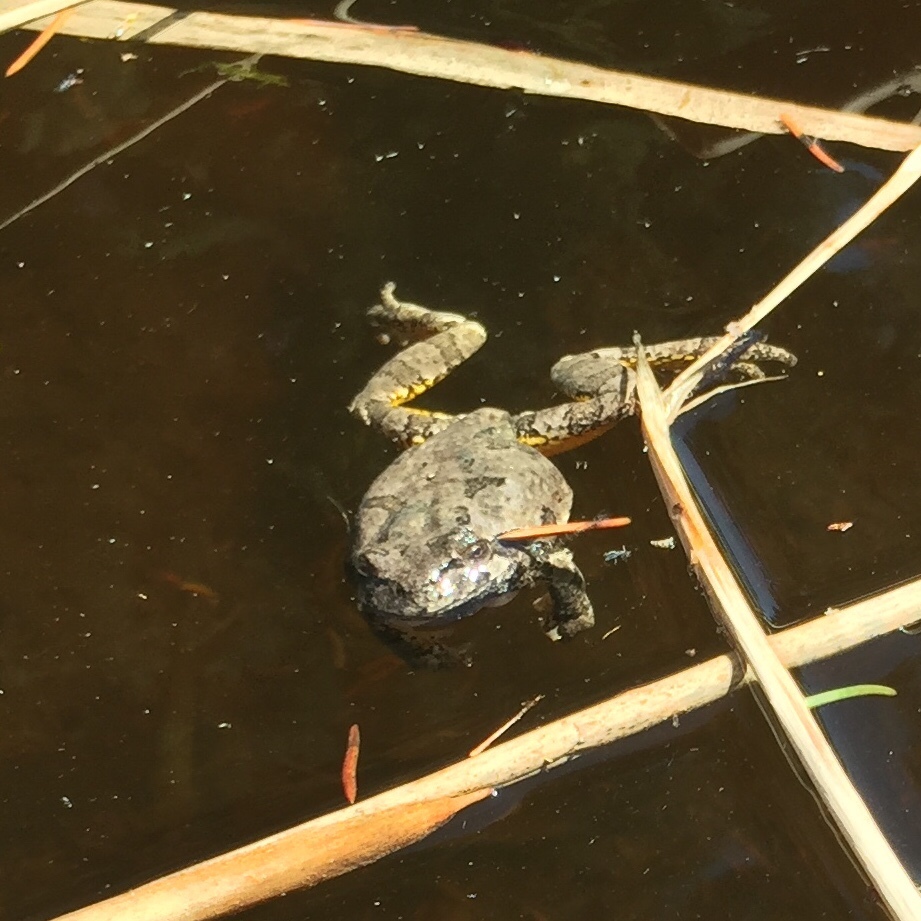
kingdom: Animalia
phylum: Chordata
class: Amphibia
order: Anura
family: Hylidae
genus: Hyla
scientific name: Hyla
